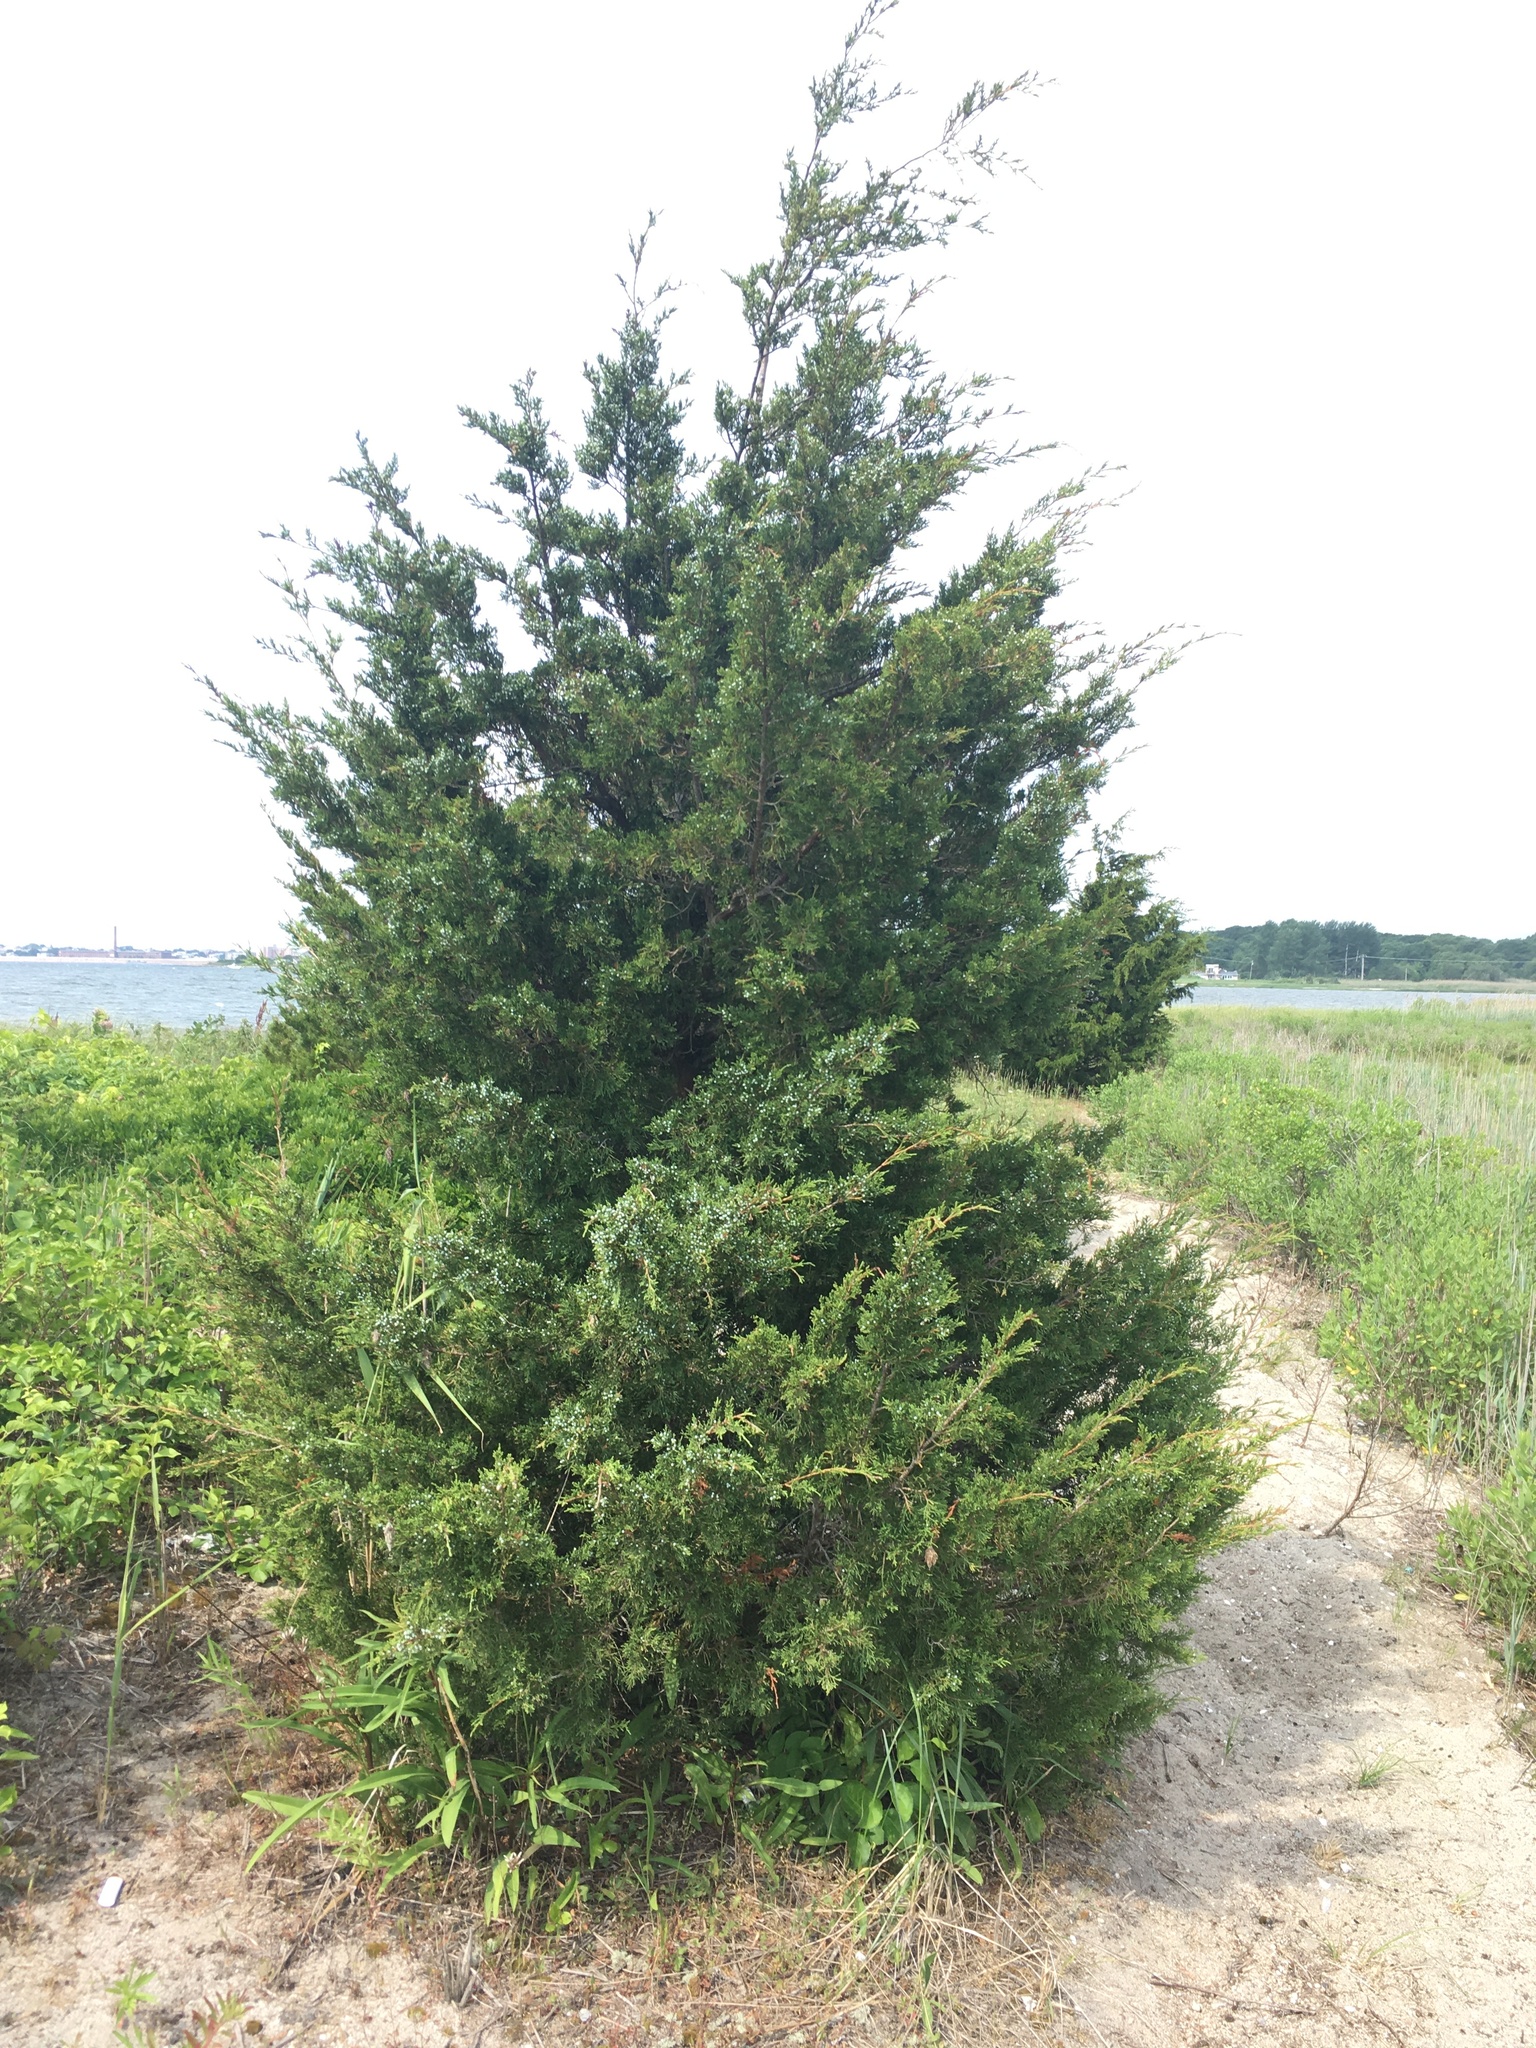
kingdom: Plantae
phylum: Tracheophyta
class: Pinopsida
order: Pinales
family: Cupressaceae
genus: Juniperus
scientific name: Juniperus virginiana
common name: Red juniper
